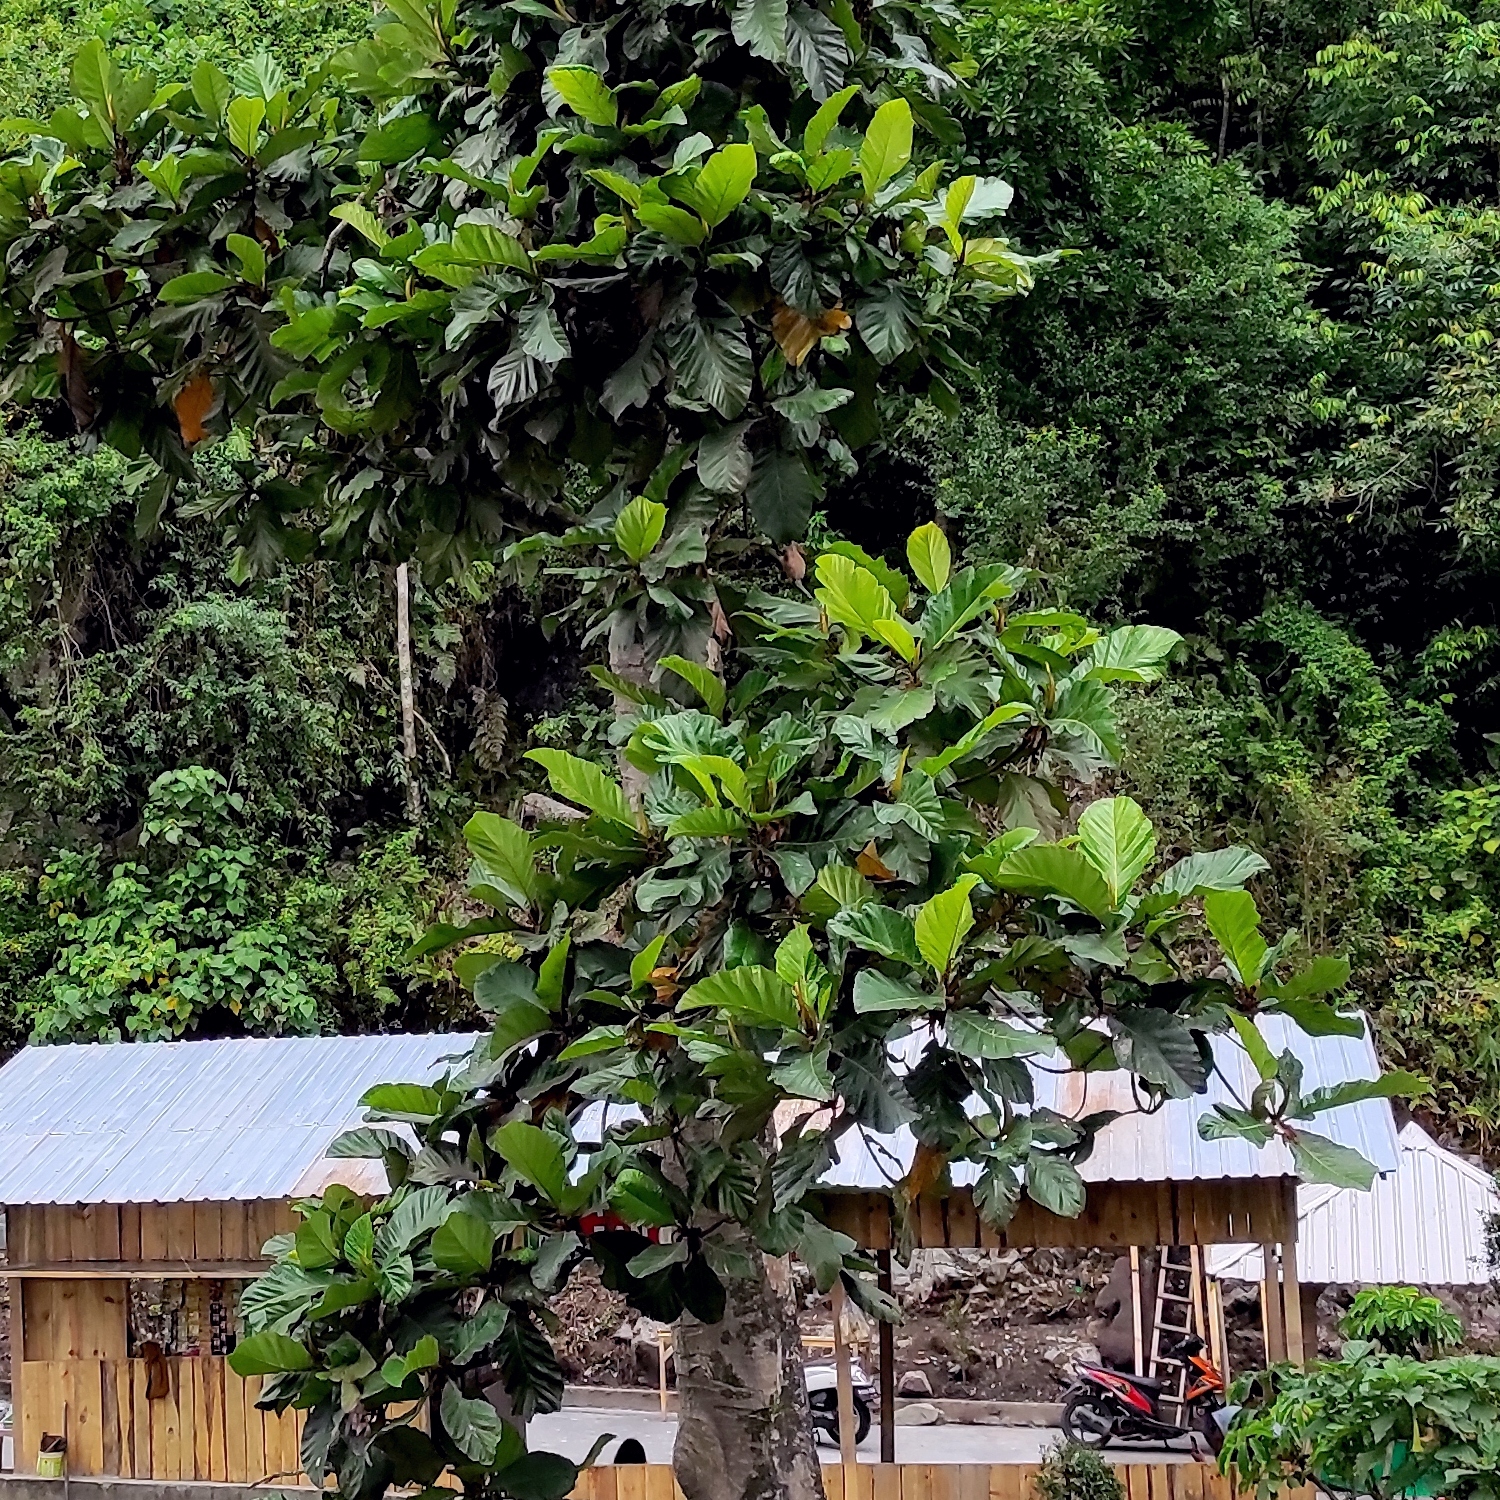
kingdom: Plantae
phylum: Tracheophyta
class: Magnoliopsida
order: Rosales
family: Moraceae
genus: Artocarpus
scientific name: Artocarpus elasticus
